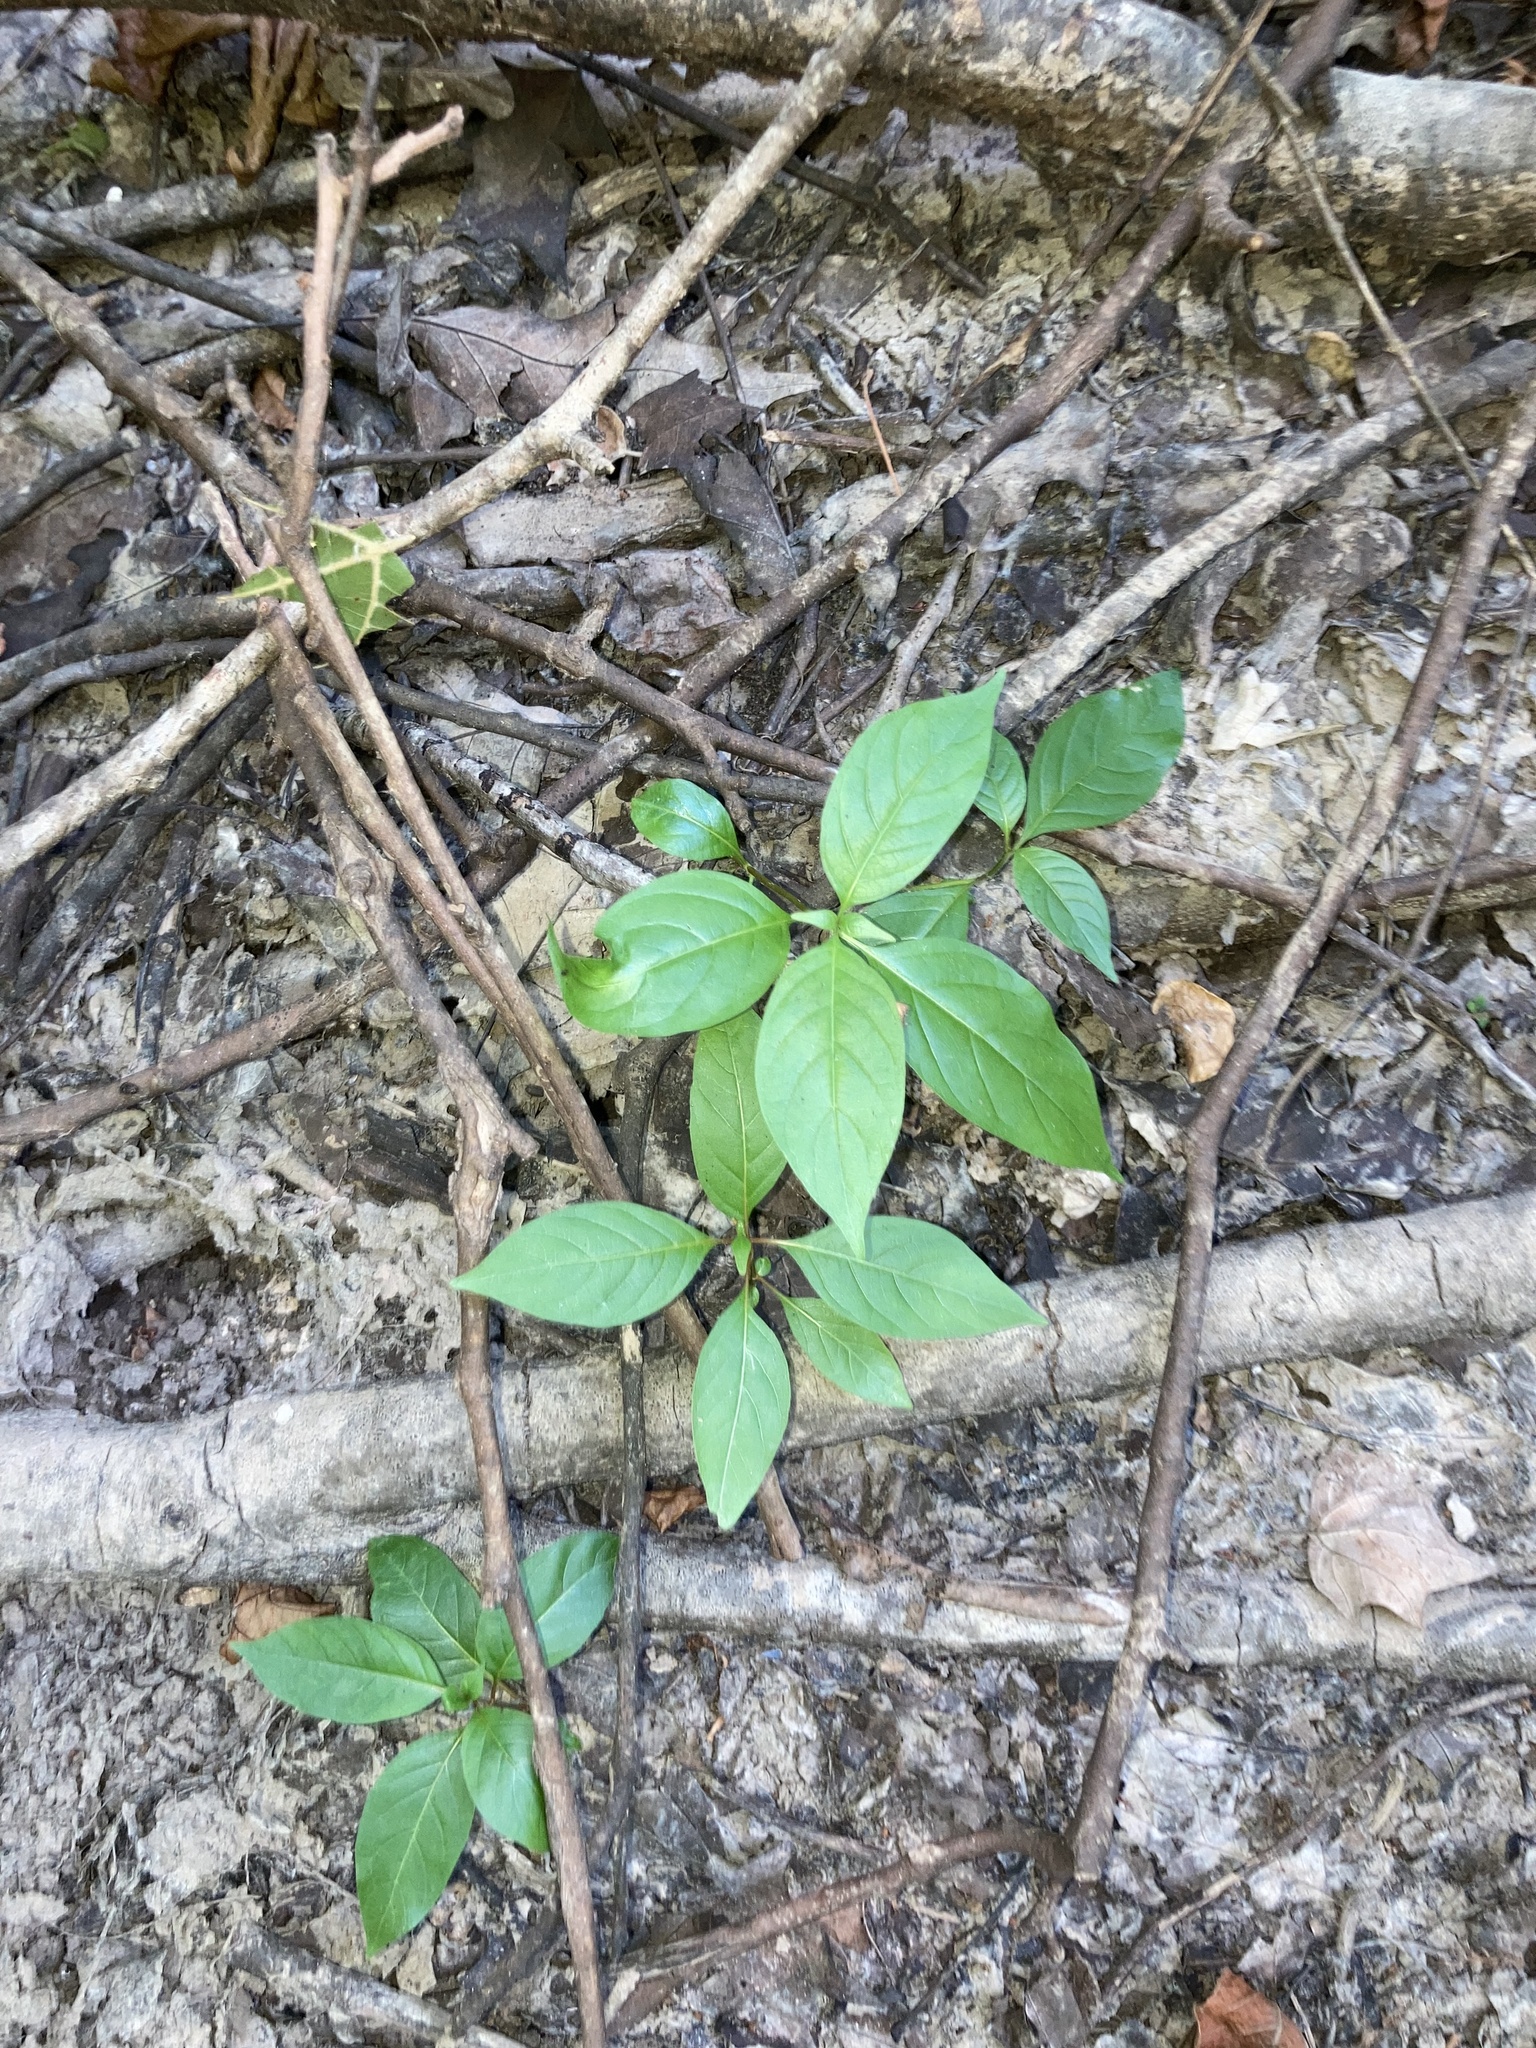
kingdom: Plantae
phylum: Tracheophyta
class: Magnoliopsida
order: Gentianales
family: Rubiaceae
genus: Cephalanthus
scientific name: Cephalanthus occidentalis
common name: Button-willow
